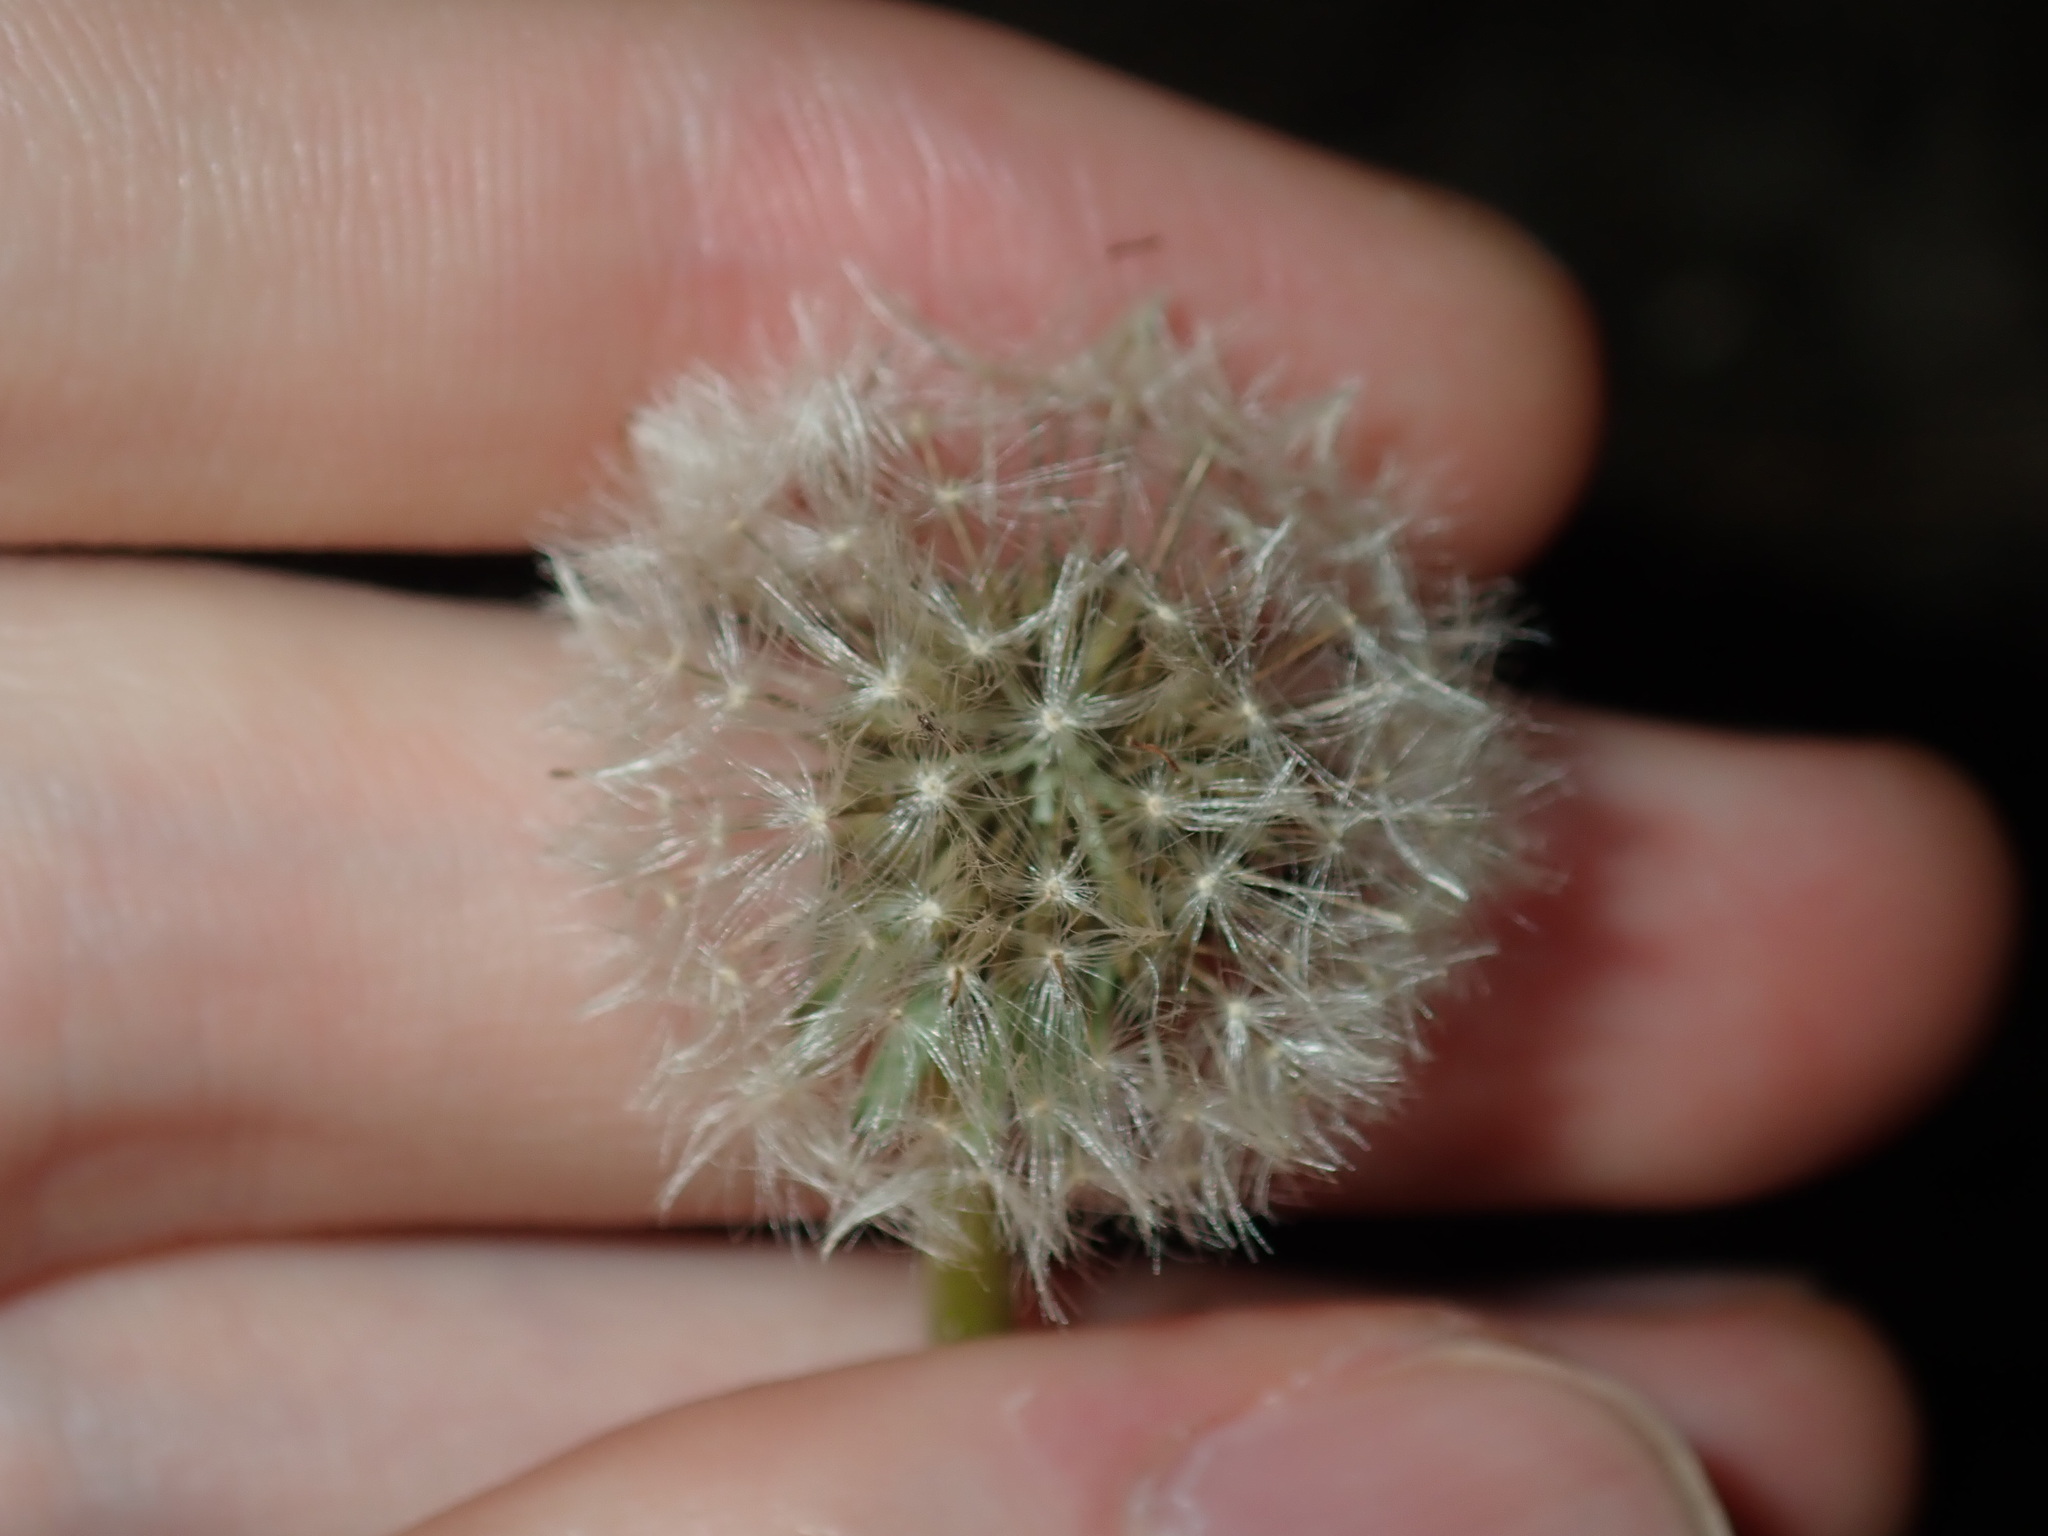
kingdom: Plantae
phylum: Tracheophyta
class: Magnoliopsida
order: Asterales
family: Asteraceae
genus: Taraxacum
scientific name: Taraxacum officinale
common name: Common dandelion
